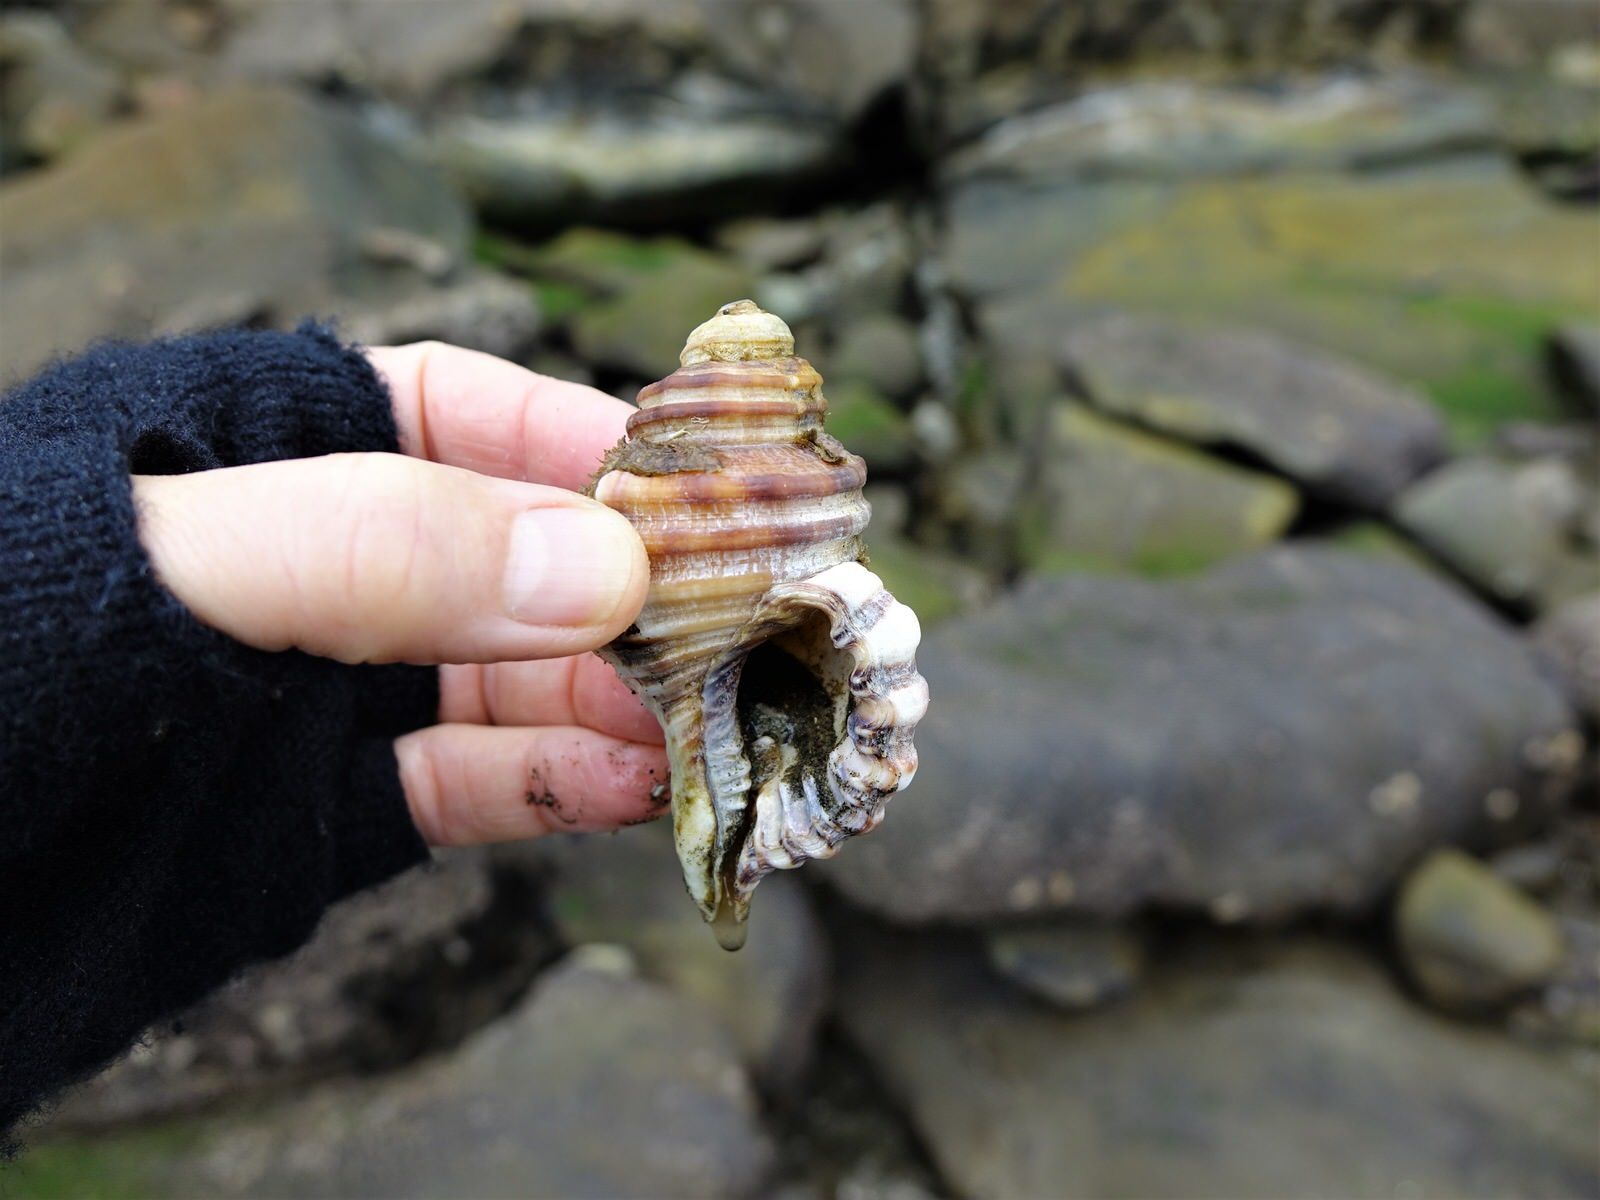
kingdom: Animalia
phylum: Mollusca
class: Gastropoda
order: Littorinimorpha
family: Cymatiidae
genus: Monoplex
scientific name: Monoplex parthenopeus
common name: Giant triton
